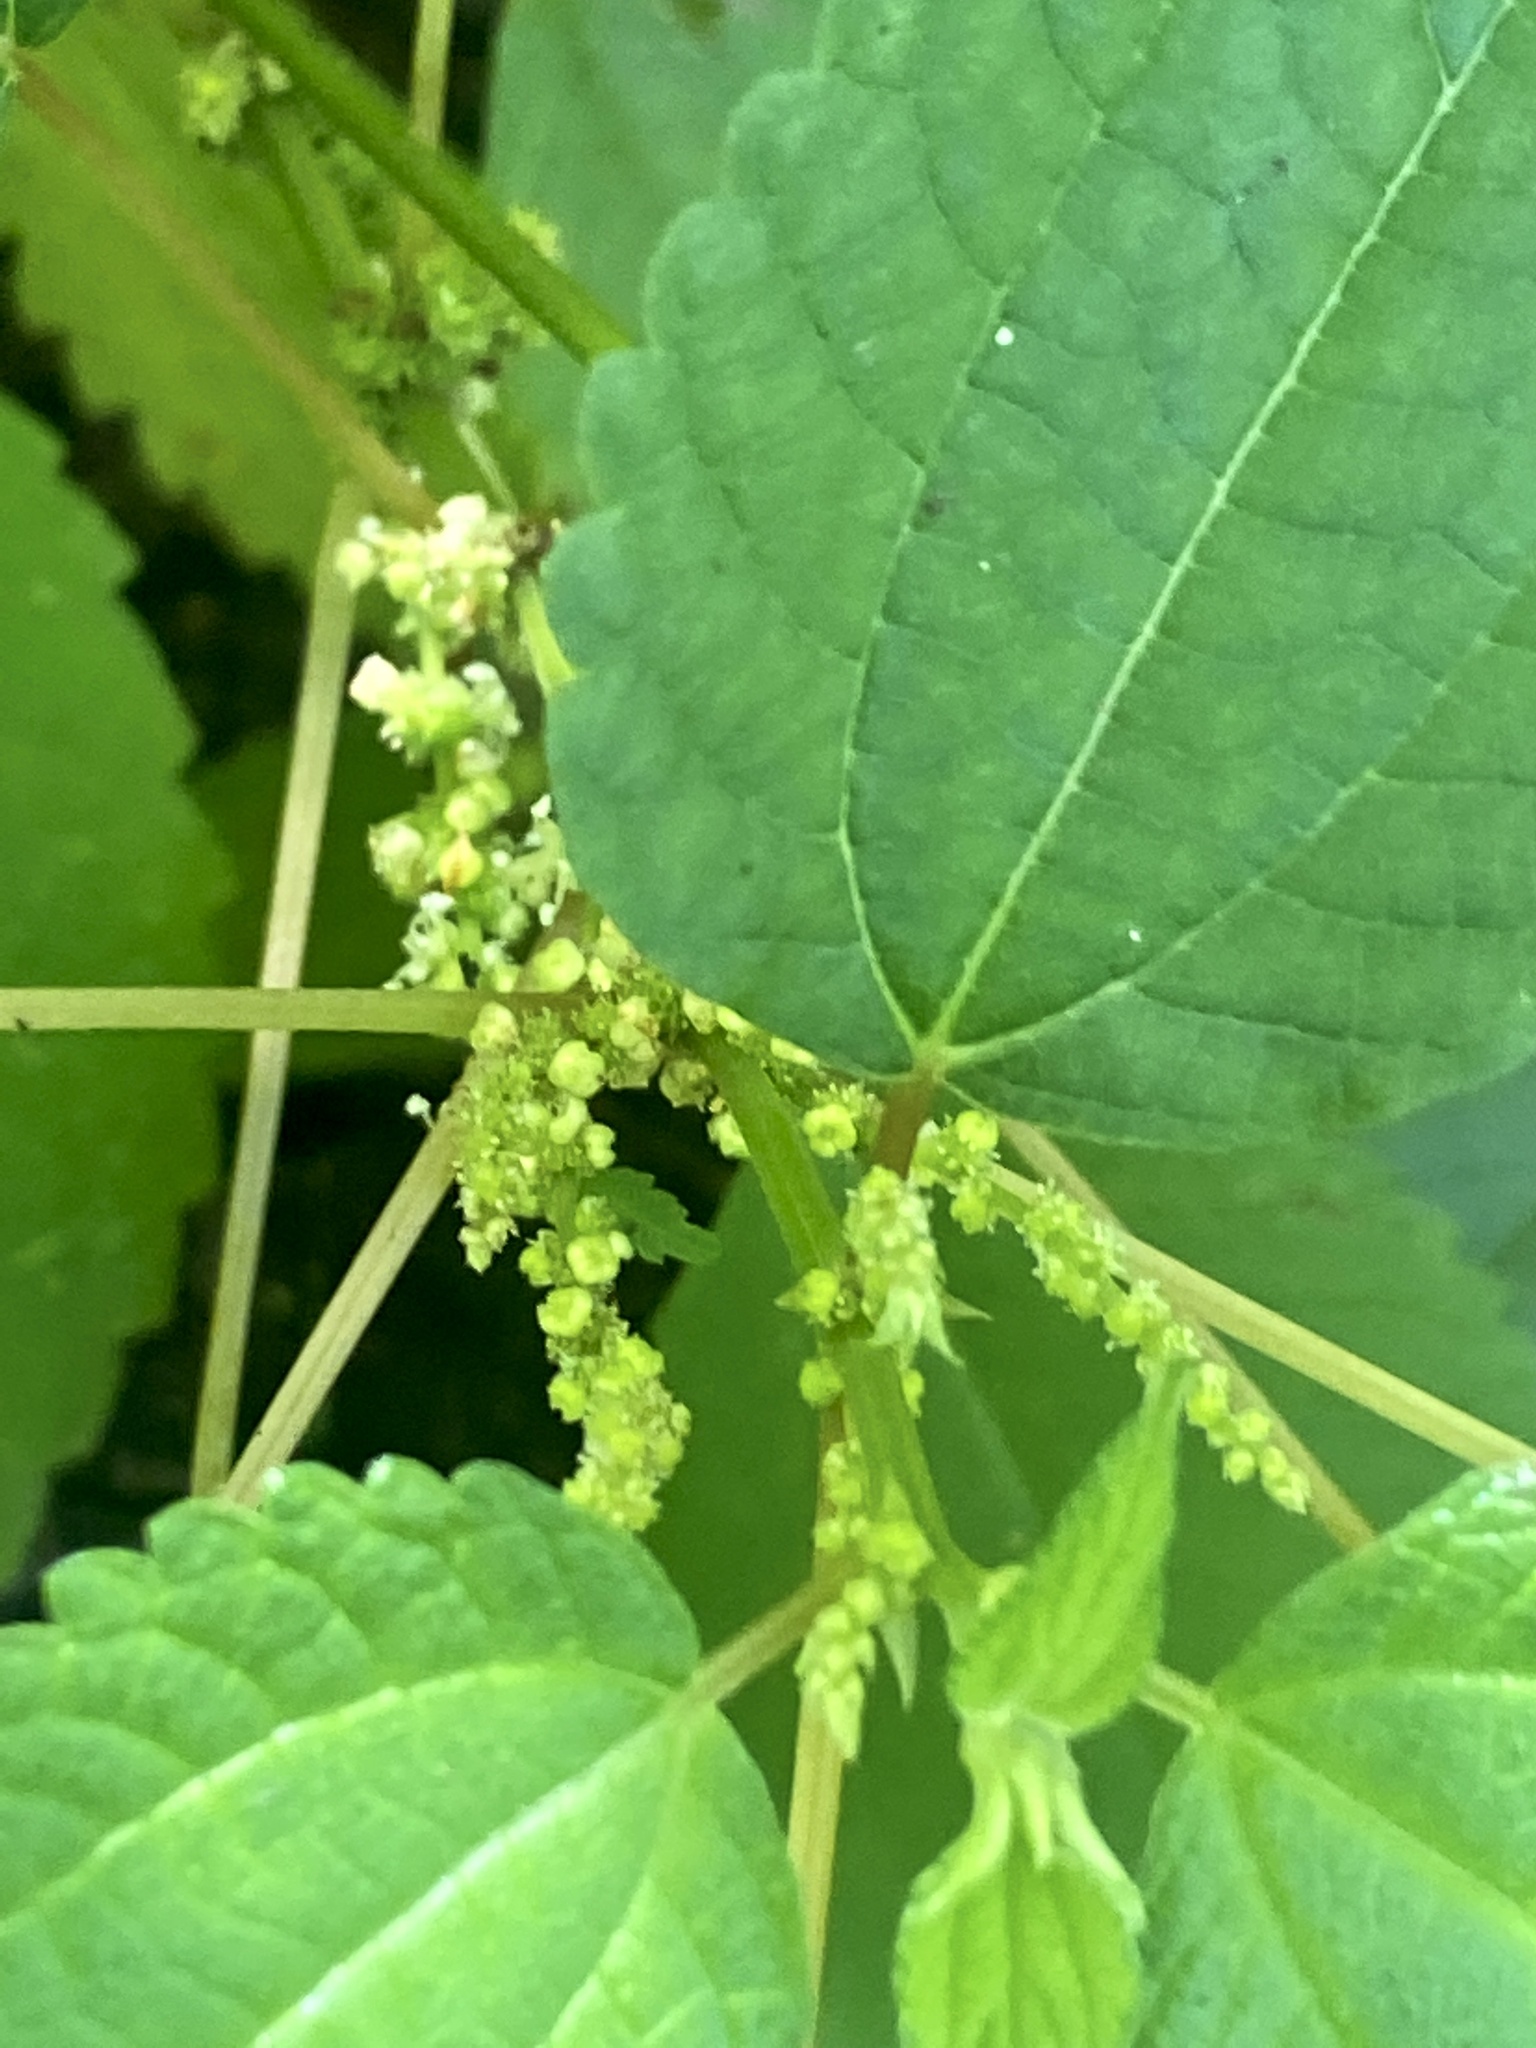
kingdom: Plantae
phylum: Tracheophyta
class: Magnoliopsida
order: Rosales
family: Urticaceae
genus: Boehmeria
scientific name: Boehmeria cylindrica
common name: Bog-hemp
